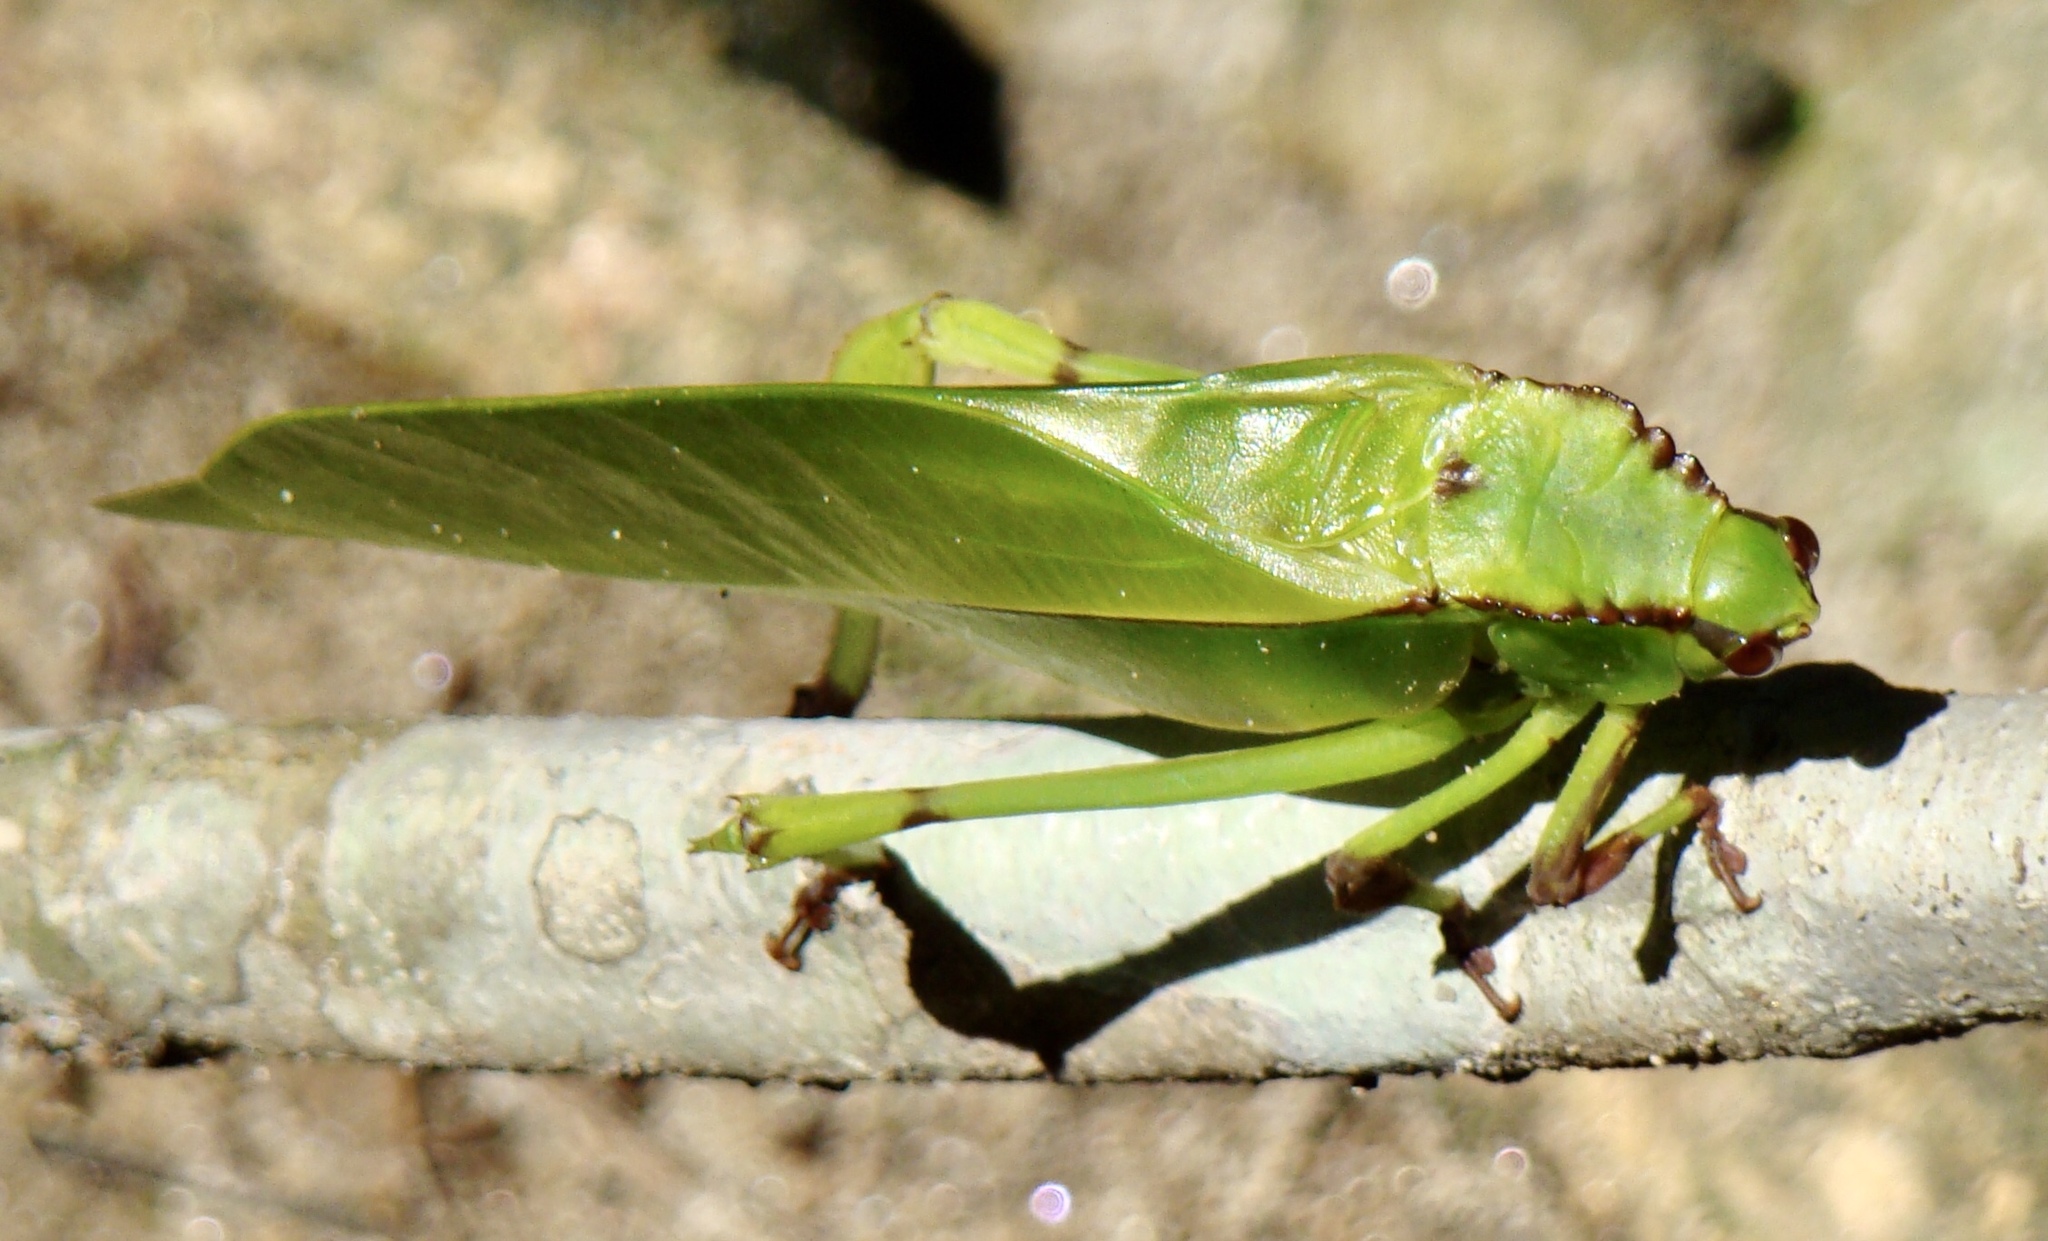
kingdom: Animalia
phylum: Arthropoda
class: Insecta
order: Orthoptera
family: Tettigoniidae
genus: Cnemidophyllum
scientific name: Cnemidophyllum oblitum
